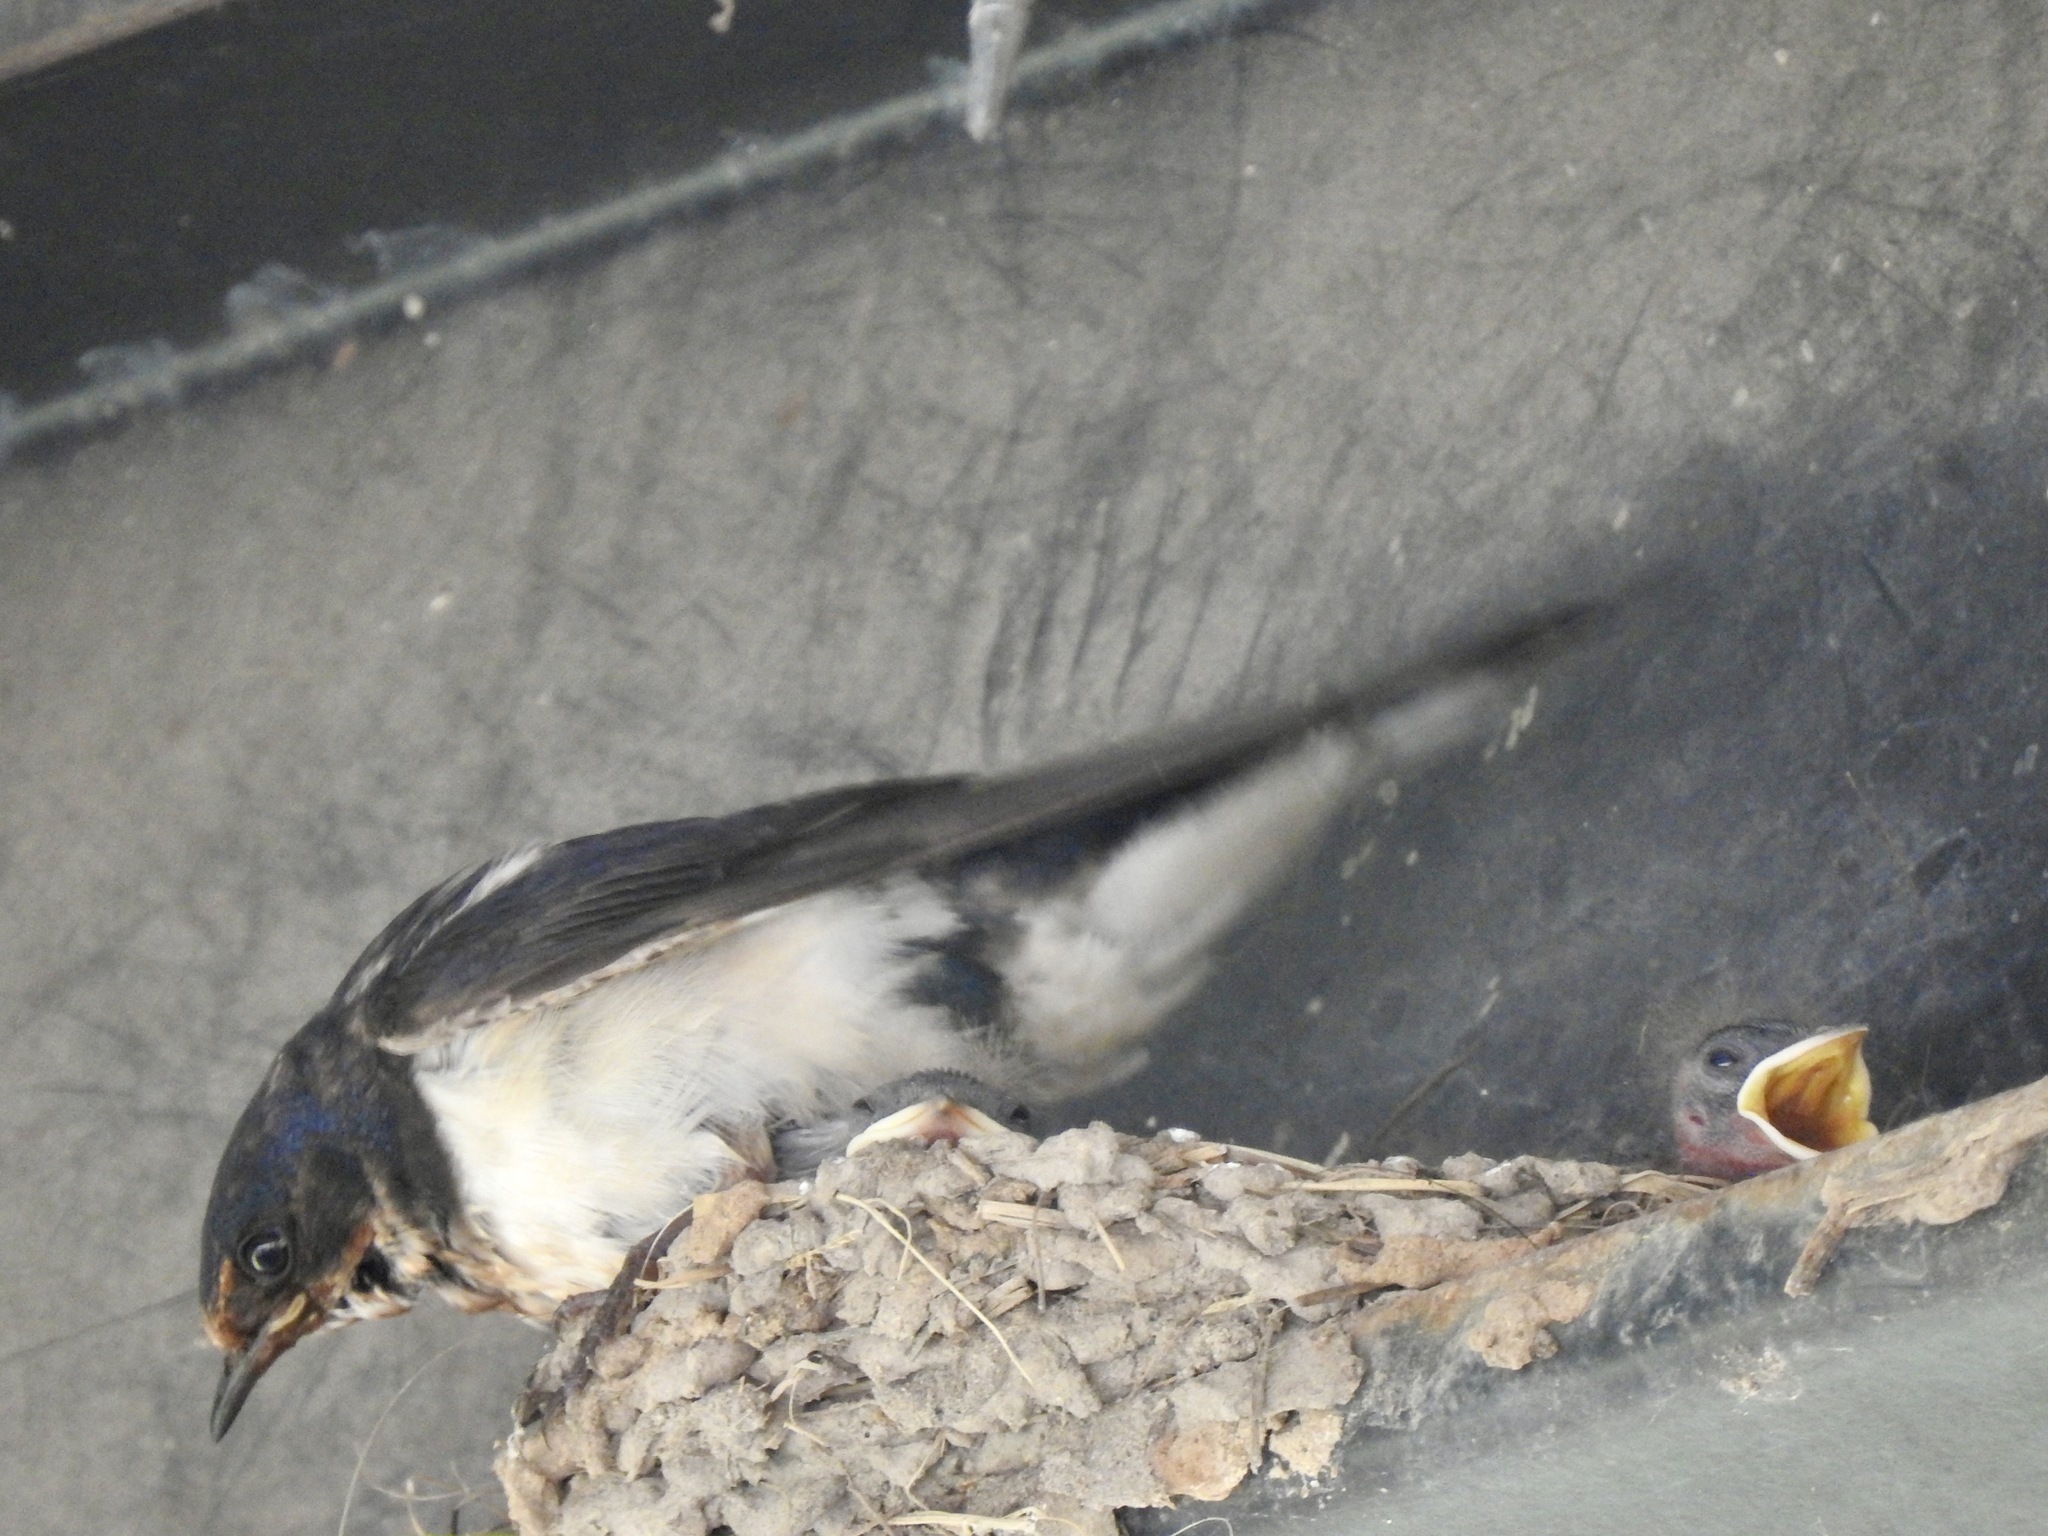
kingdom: Animalia
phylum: Chordata
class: Aves
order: Passeriformes
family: Hirundinidae
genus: Hirundo
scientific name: Hirundo rustica
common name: Barn swallow
